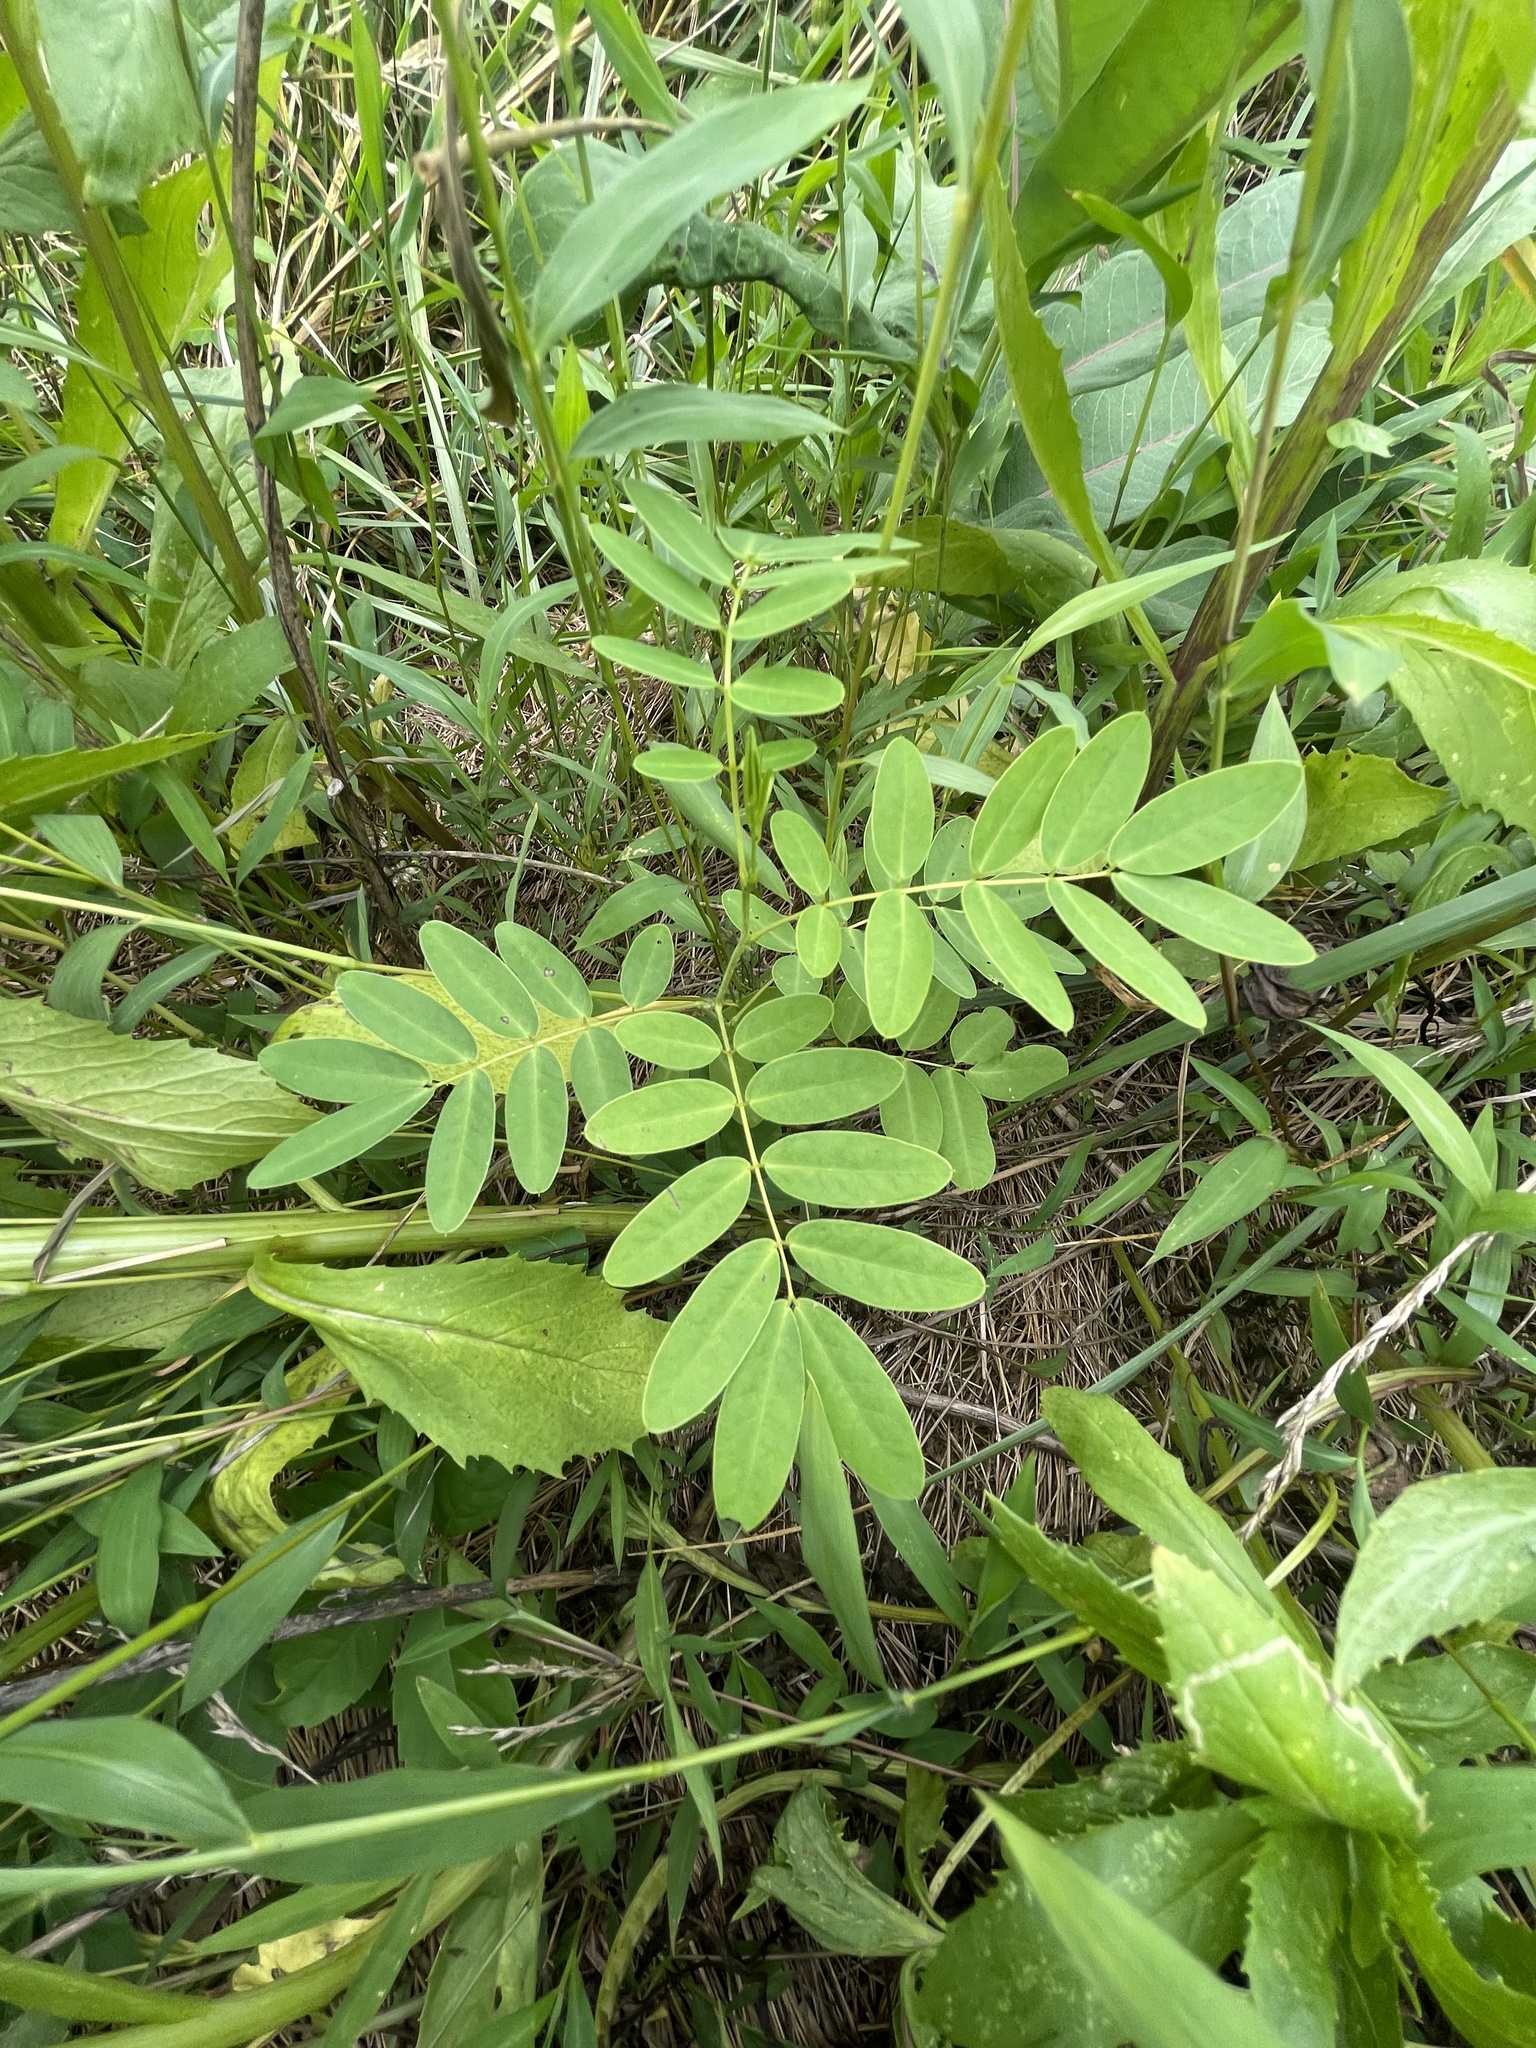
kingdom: Plantae
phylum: Tracheophyta
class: Magnoliopsida
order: Fabales
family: Fabaceae
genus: Senna
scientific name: Senna hebecarpa
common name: Wild senna
